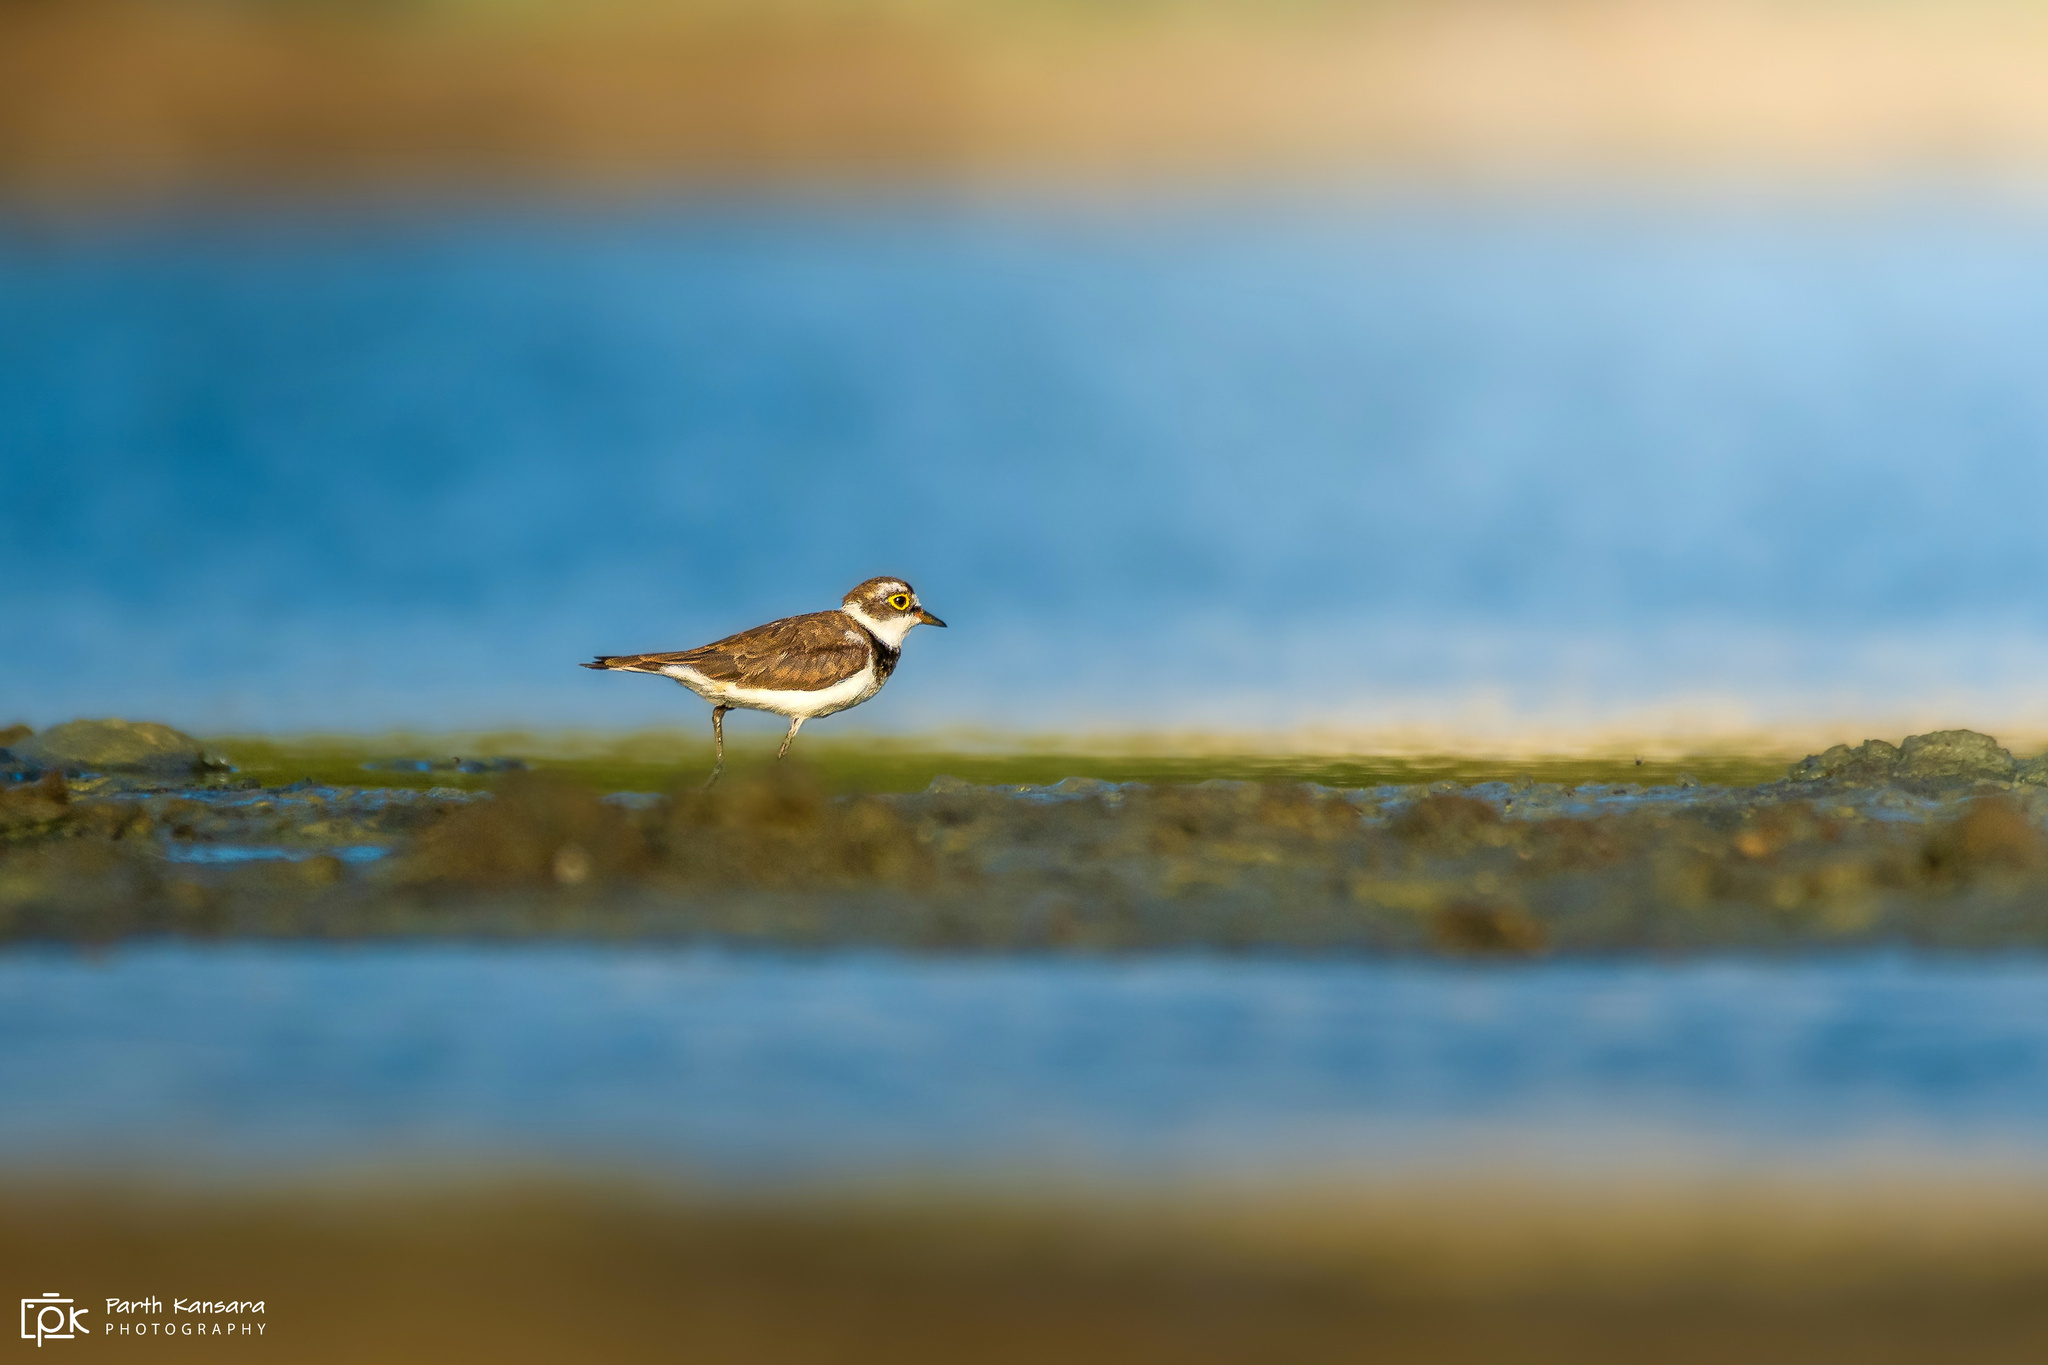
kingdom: Animalia
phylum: Chordata
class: Aves
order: Charadriiformes
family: Charadriidae
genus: Charadrius
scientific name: Charadrius dubius
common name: Little ringed plover
